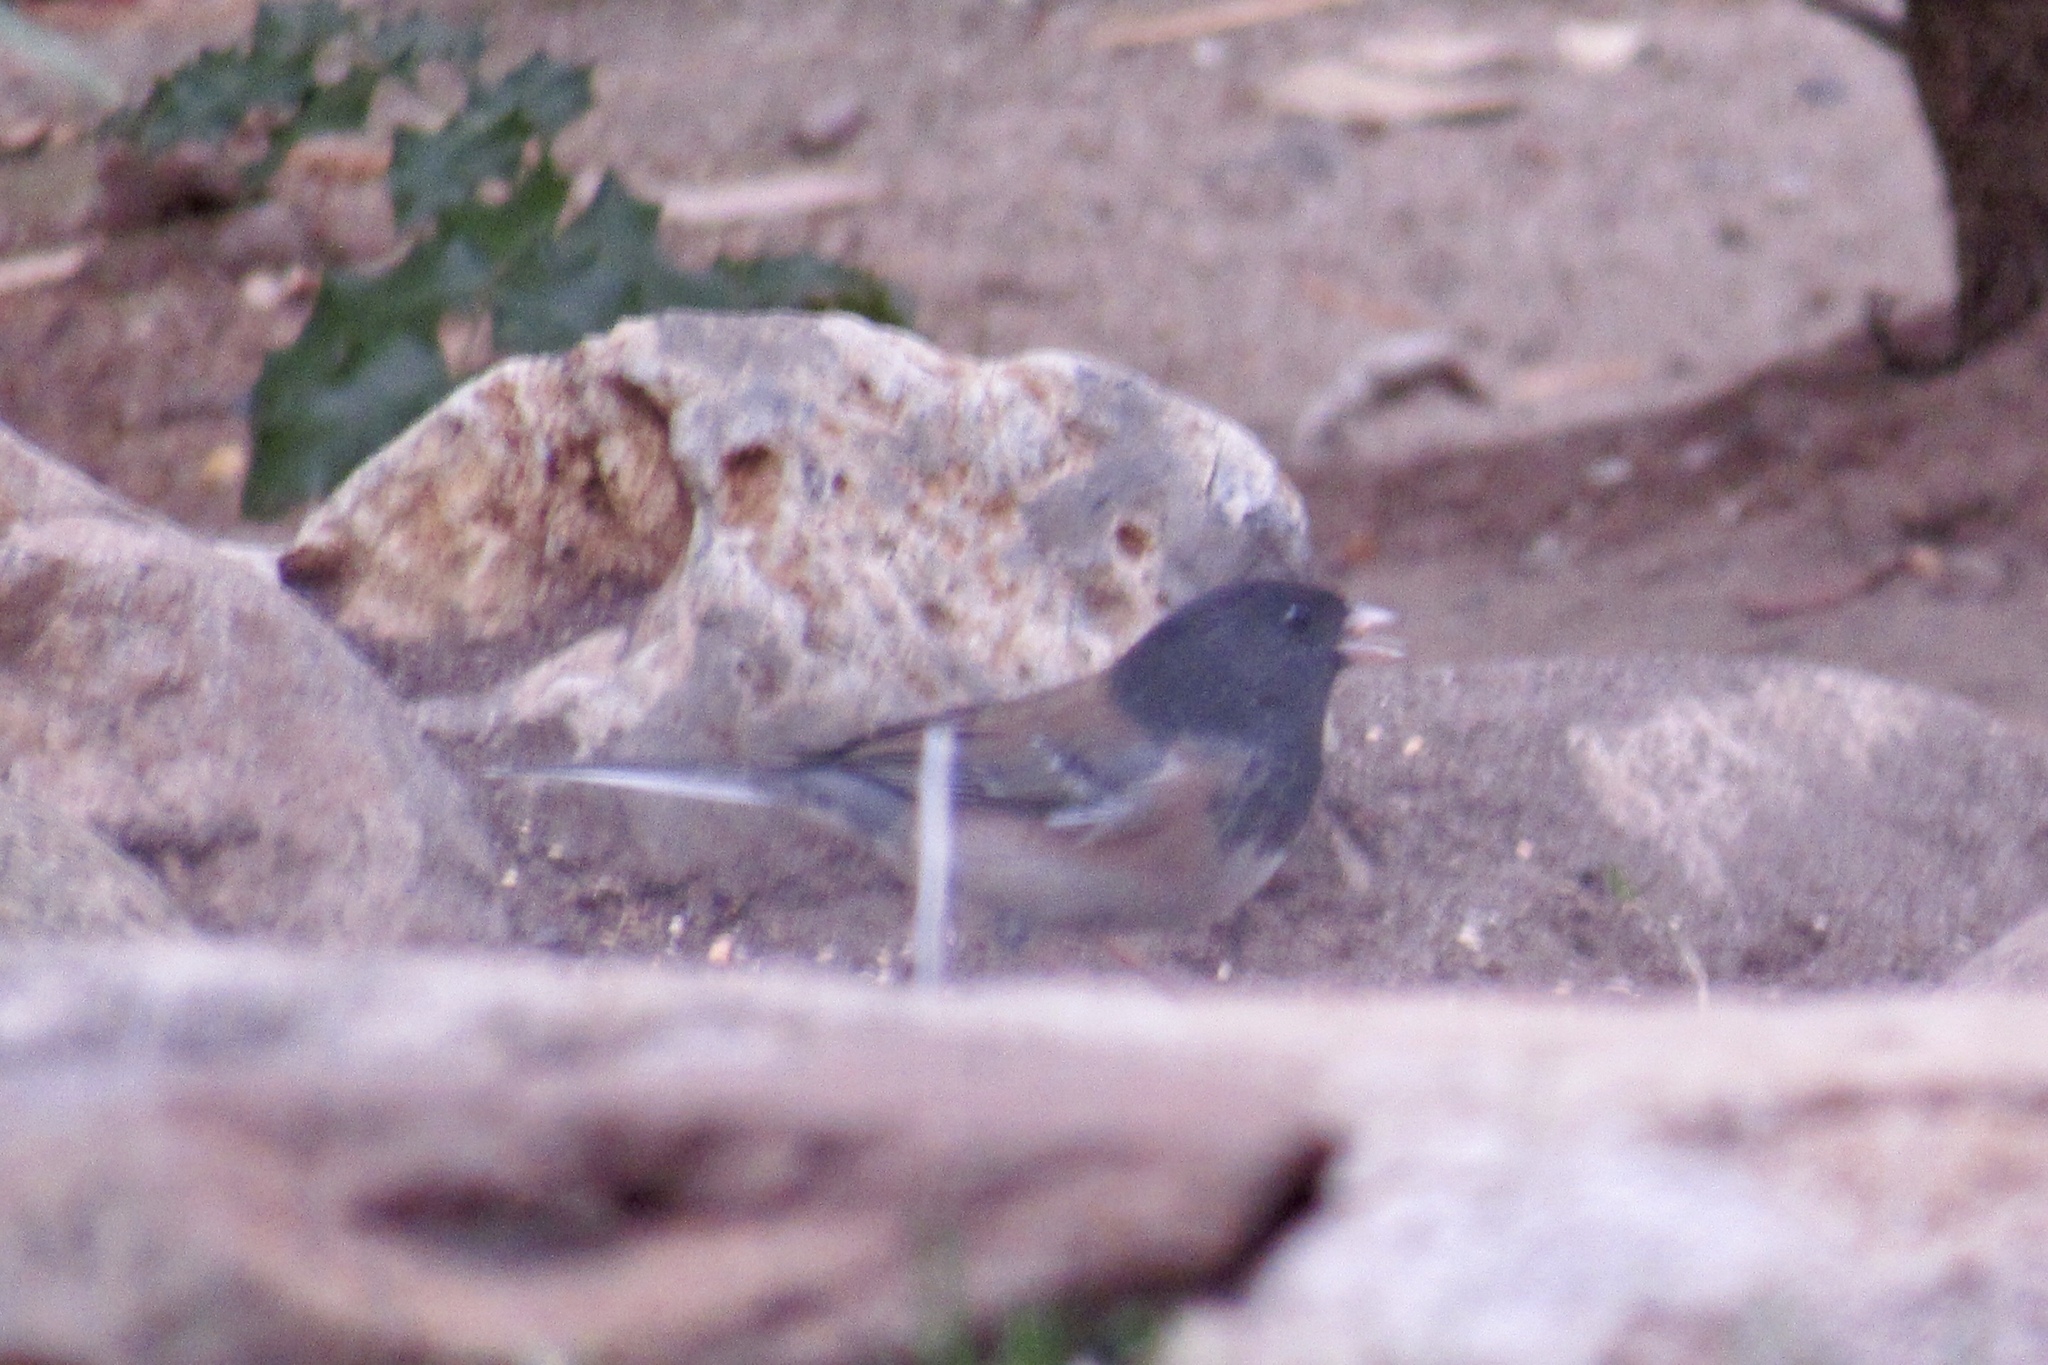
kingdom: Animalia
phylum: Chordata
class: Aves
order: Passeriformes
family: Passerellidae
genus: Junco
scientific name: Junco hyemalis
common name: Dark-eyed junco
